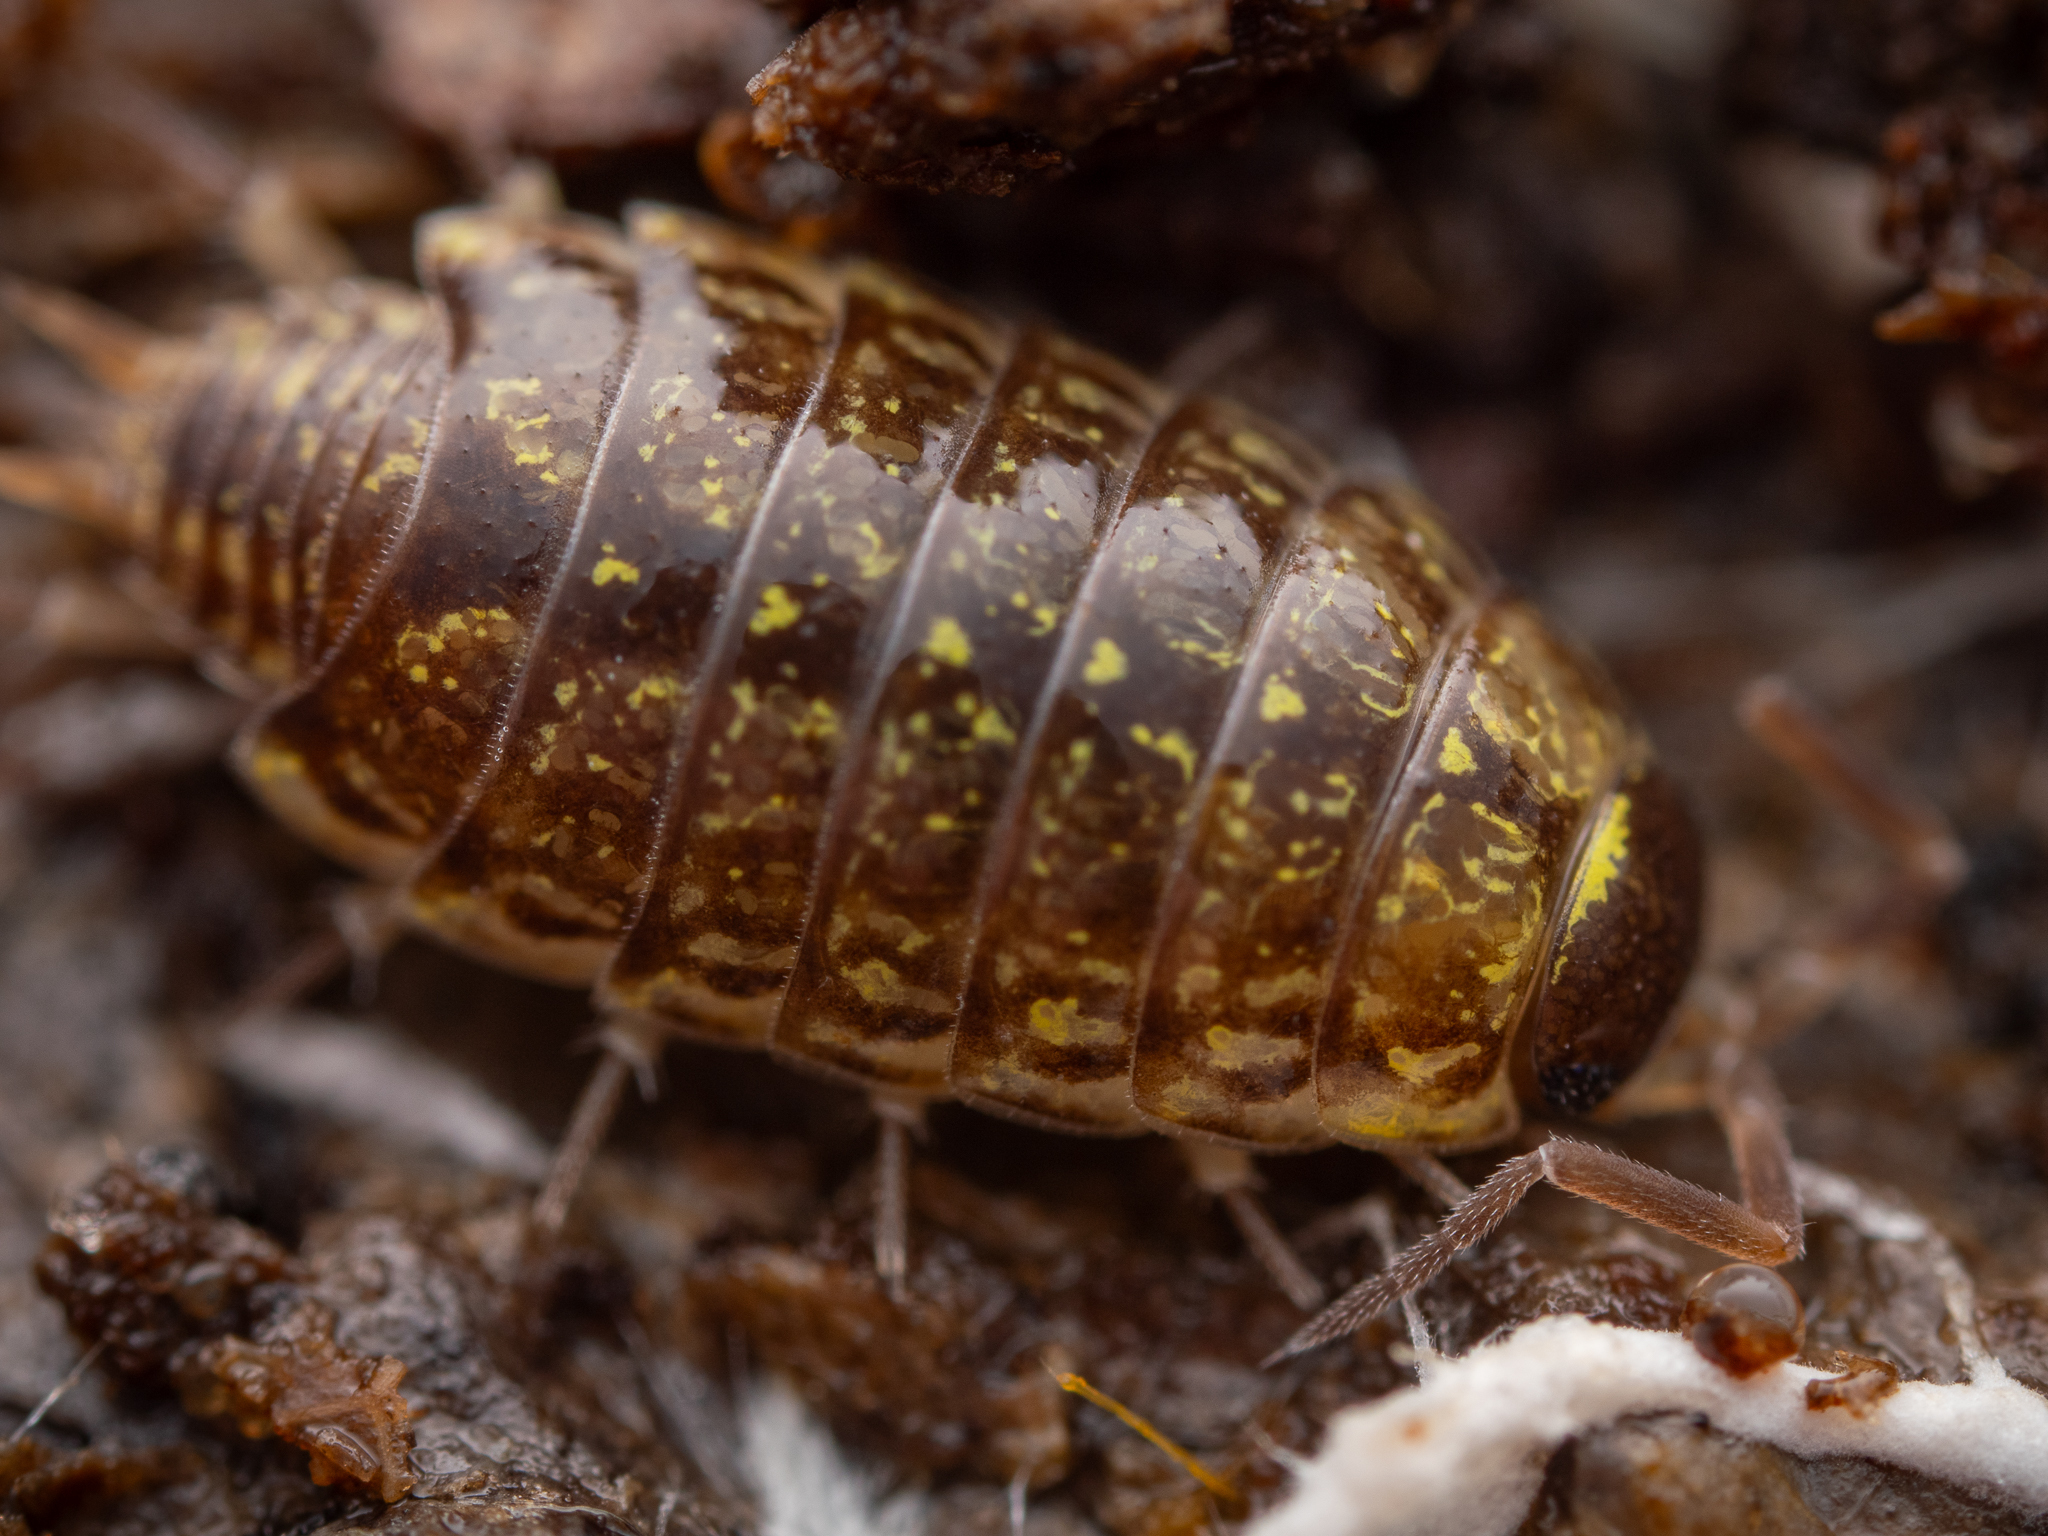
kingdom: Animalia
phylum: Arthropoda
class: Malacostraca
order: Isopoda
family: Philosciidae
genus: Philoscia
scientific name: Philoscia muscorum
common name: Common striped woodlouse
